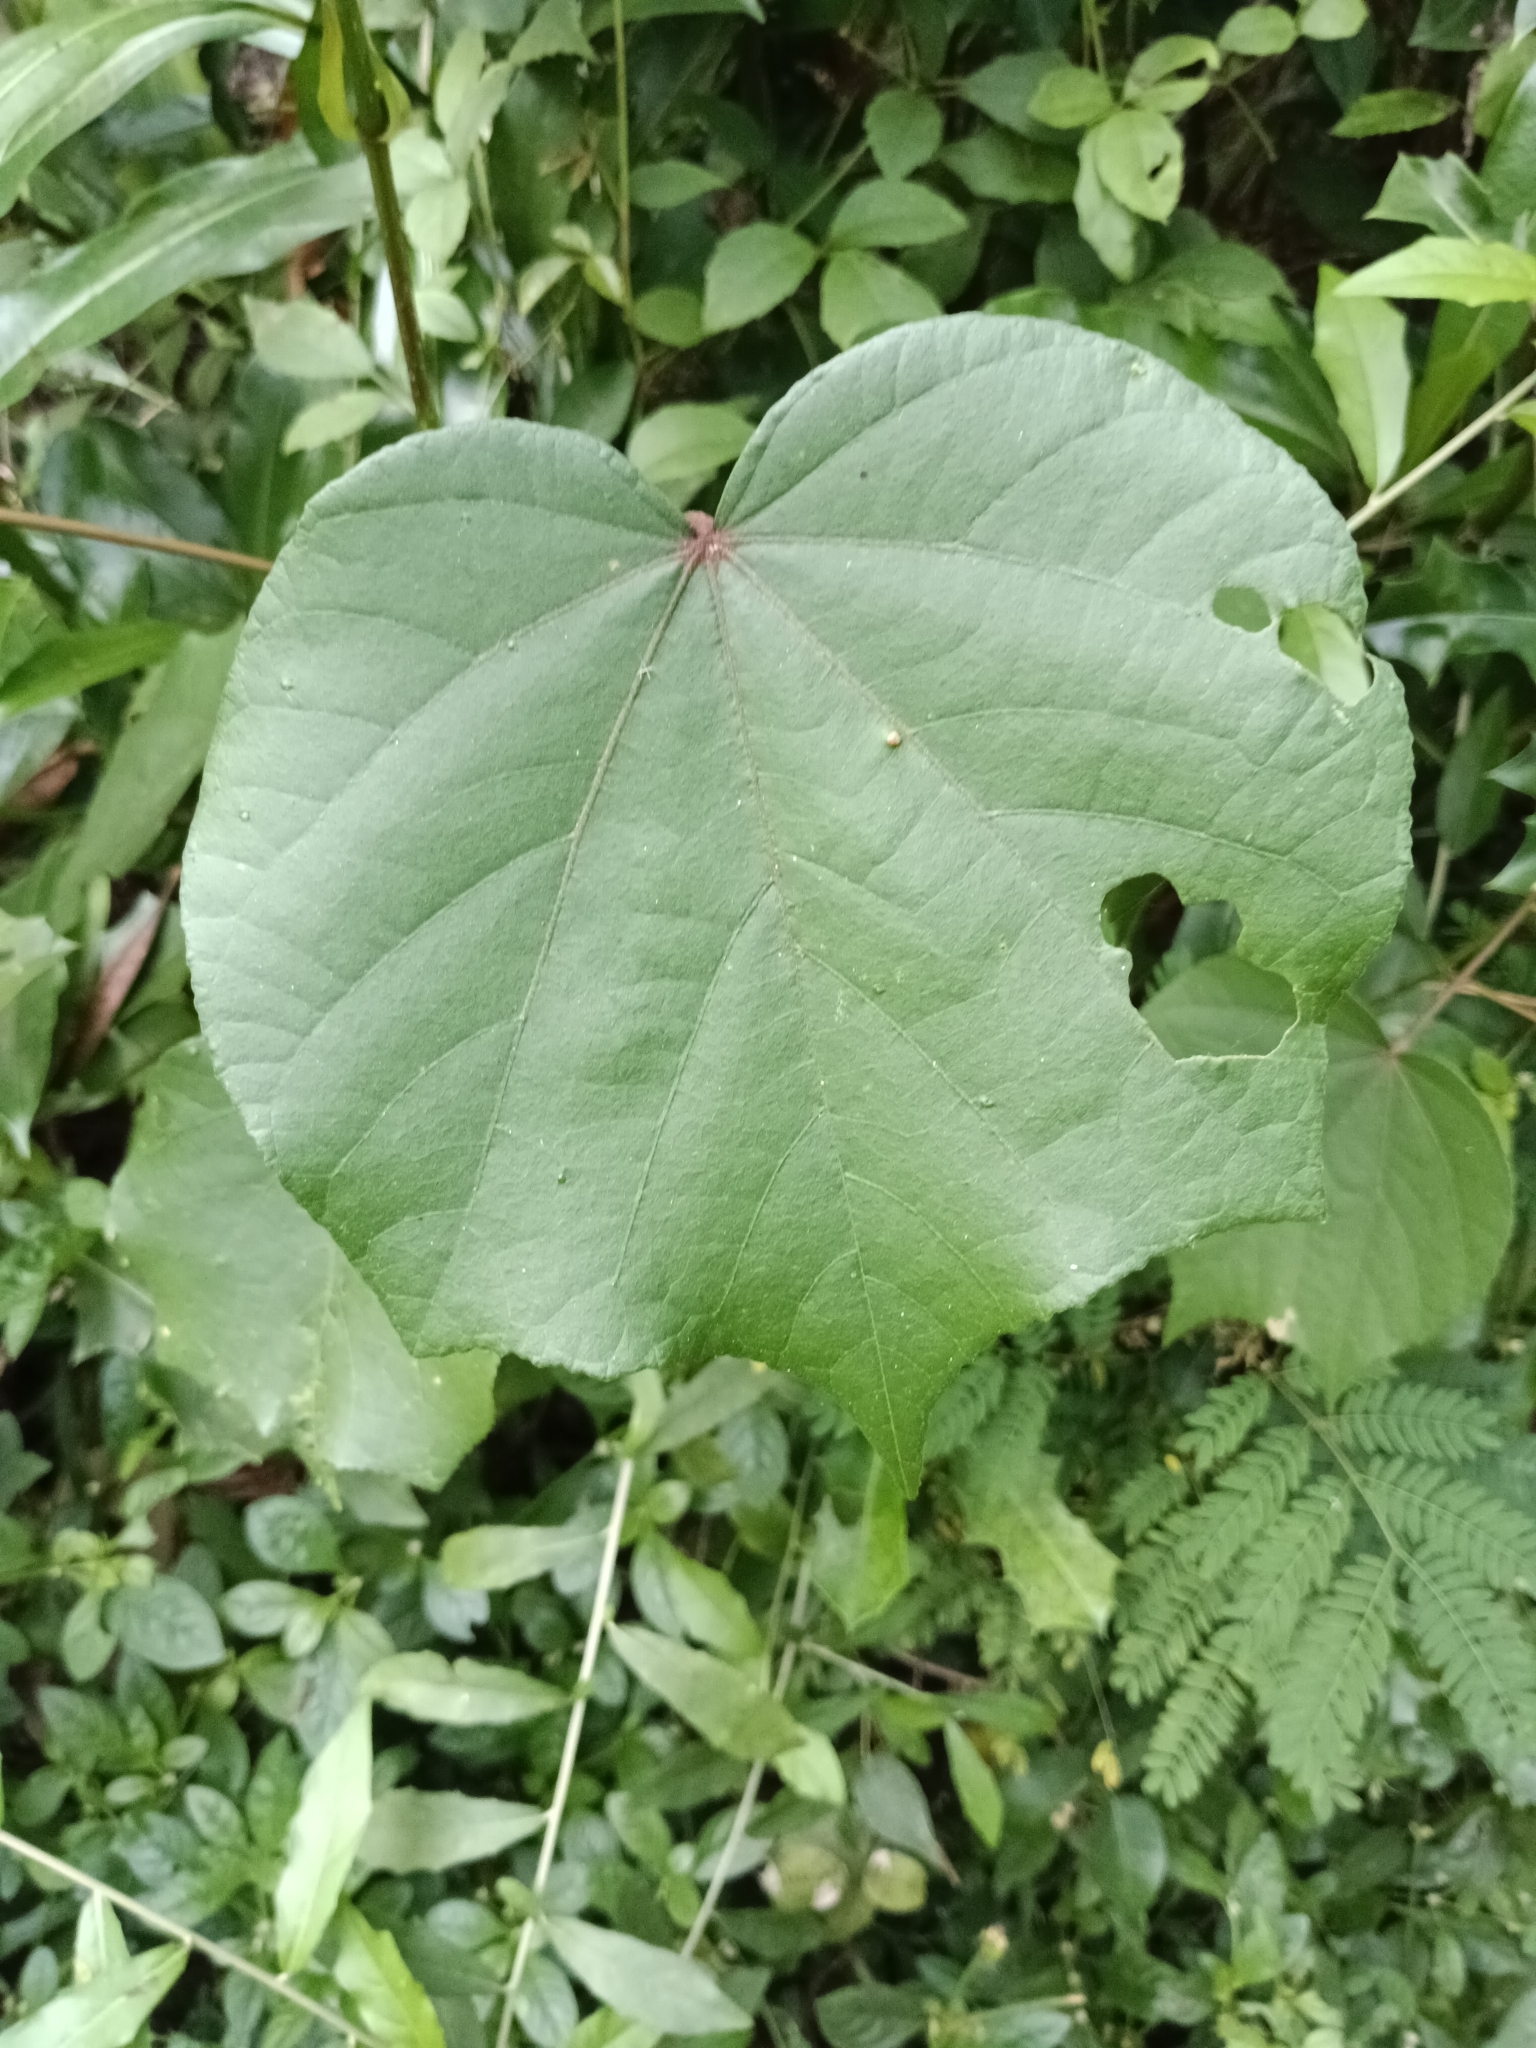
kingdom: Plantae
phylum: Tracheophyta
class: Magnoliopsida
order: Malvales
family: Malvaceae
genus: Talipariti
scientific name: Talipariti tiliaceum
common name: Sea hibiscus
